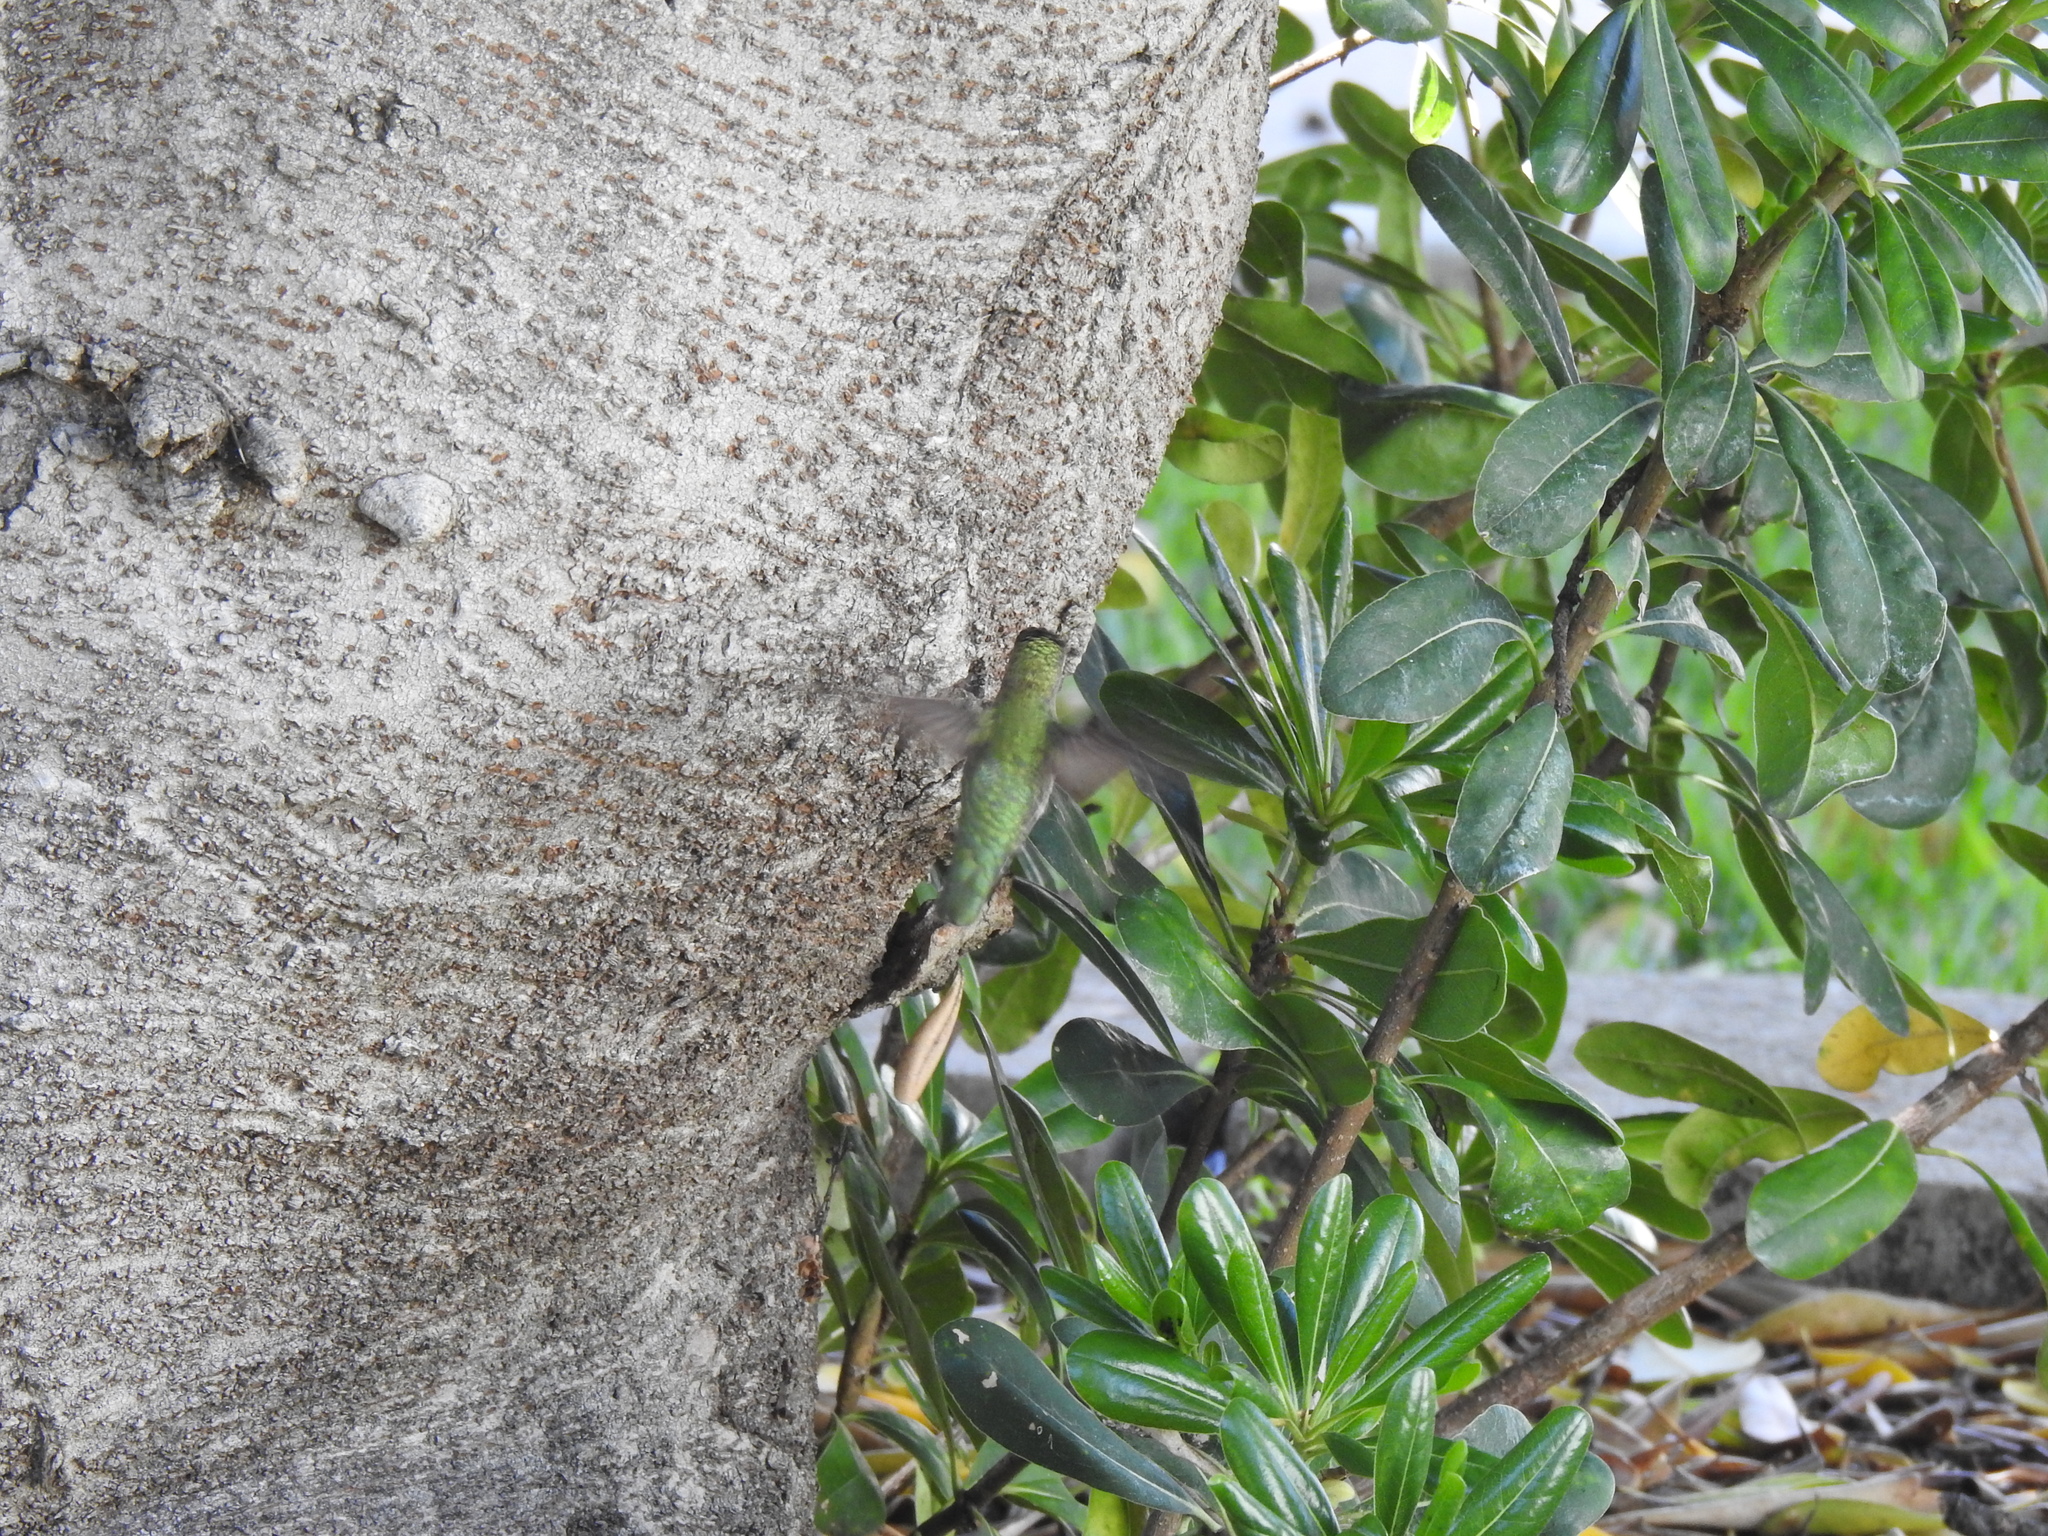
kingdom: Animalia
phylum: Chordata
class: Aves
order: Apodiformes
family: Trochilidae
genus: Calypte
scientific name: Calypte anna
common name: Anna's hummingbird
